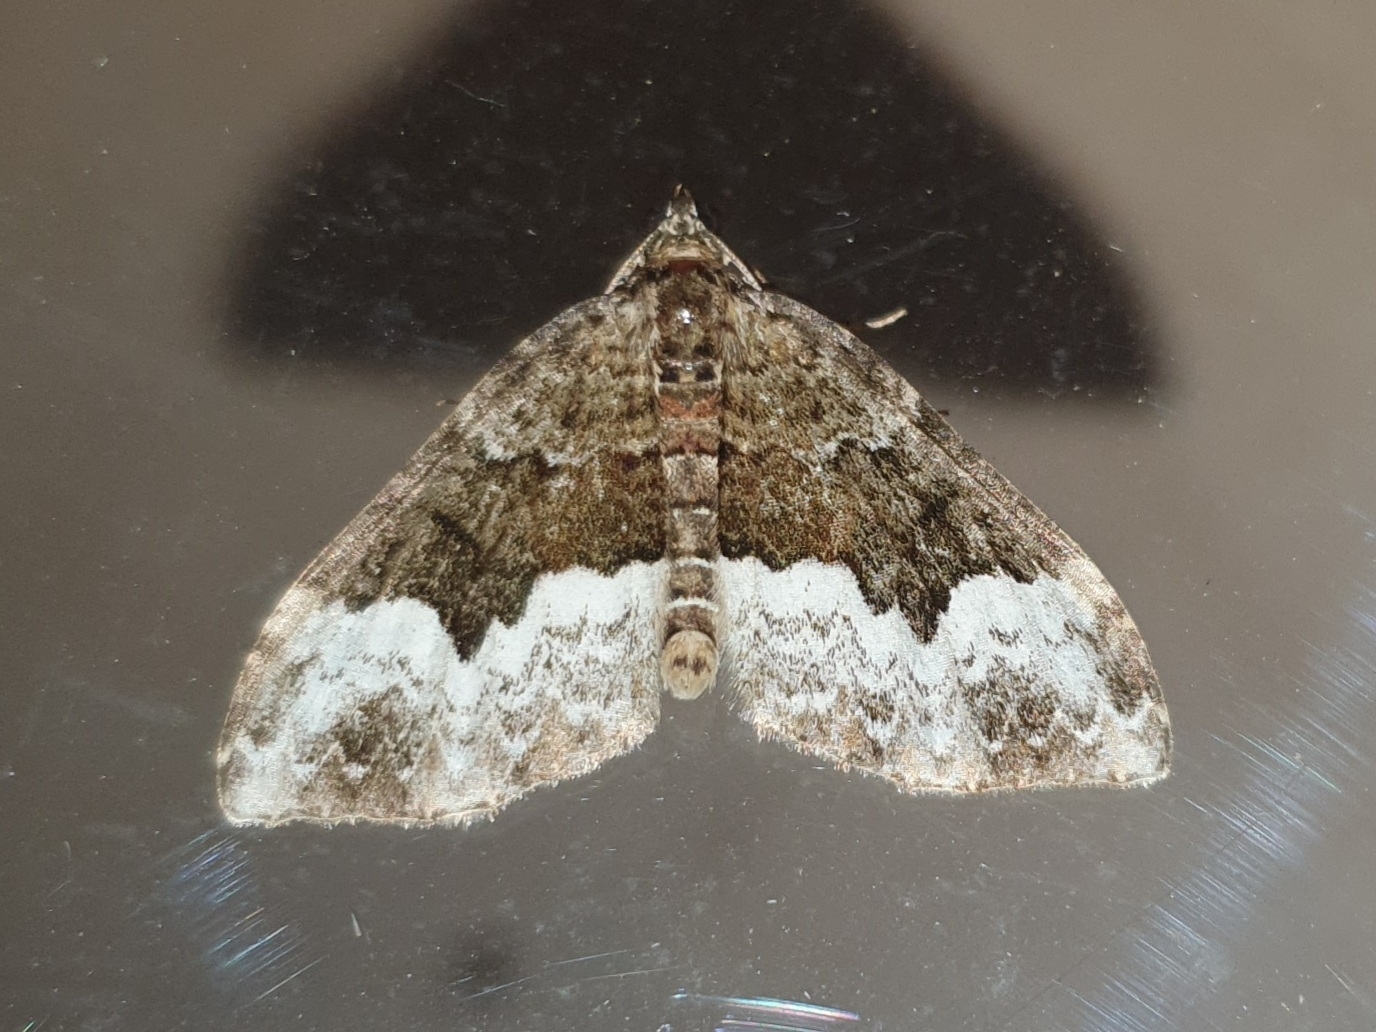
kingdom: Animalia
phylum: Arthropoda
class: Insecta
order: Lepidoptera
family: Geometridae
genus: Euphyia
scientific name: Euphyia biangulata
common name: Cloaked carpet
